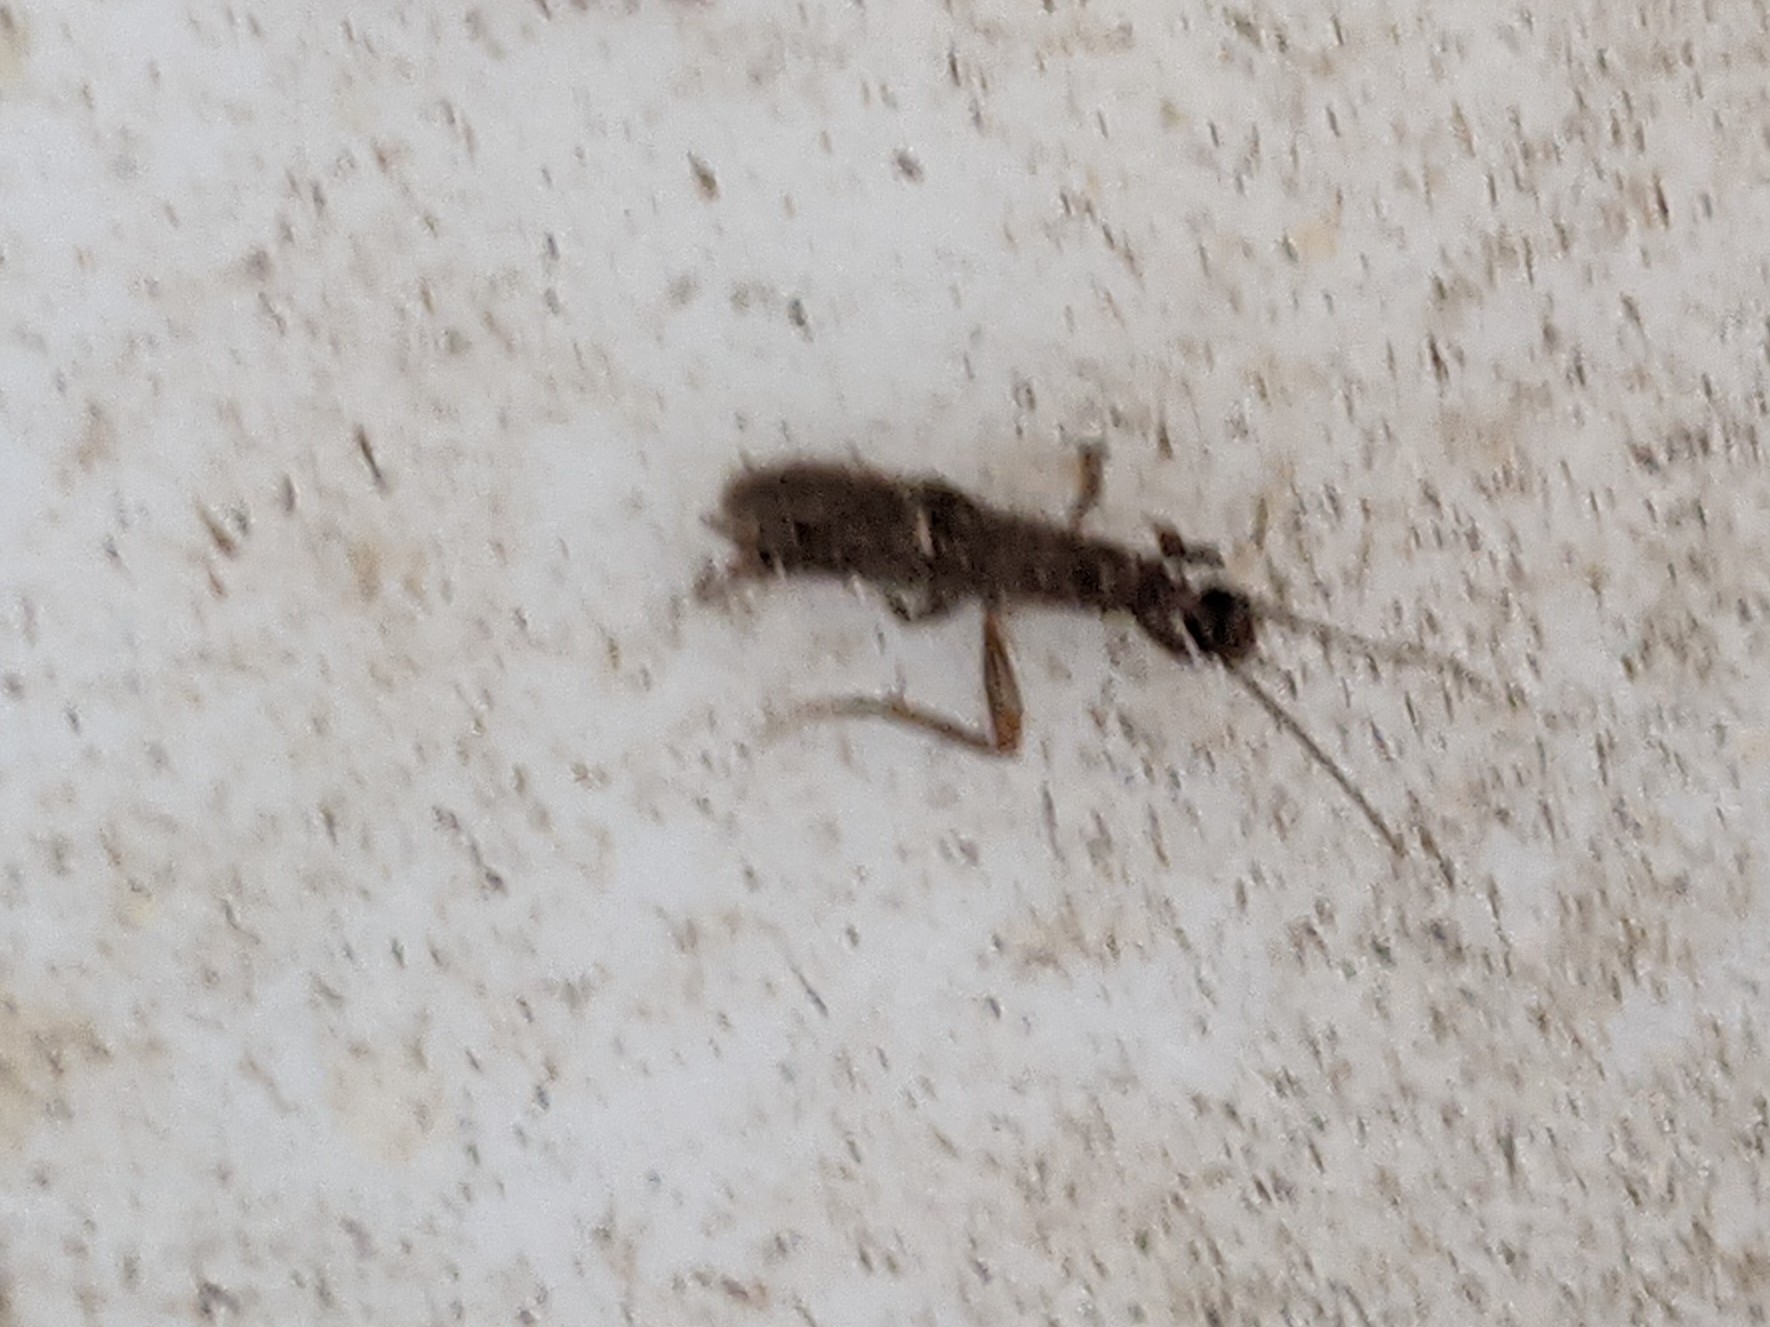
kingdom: Animalia
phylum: Arthropoda
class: Insecta
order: Embioptera
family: Oligotomidae
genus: Oligotoma
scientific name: Oligotoma nigra
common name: Black webspinner
